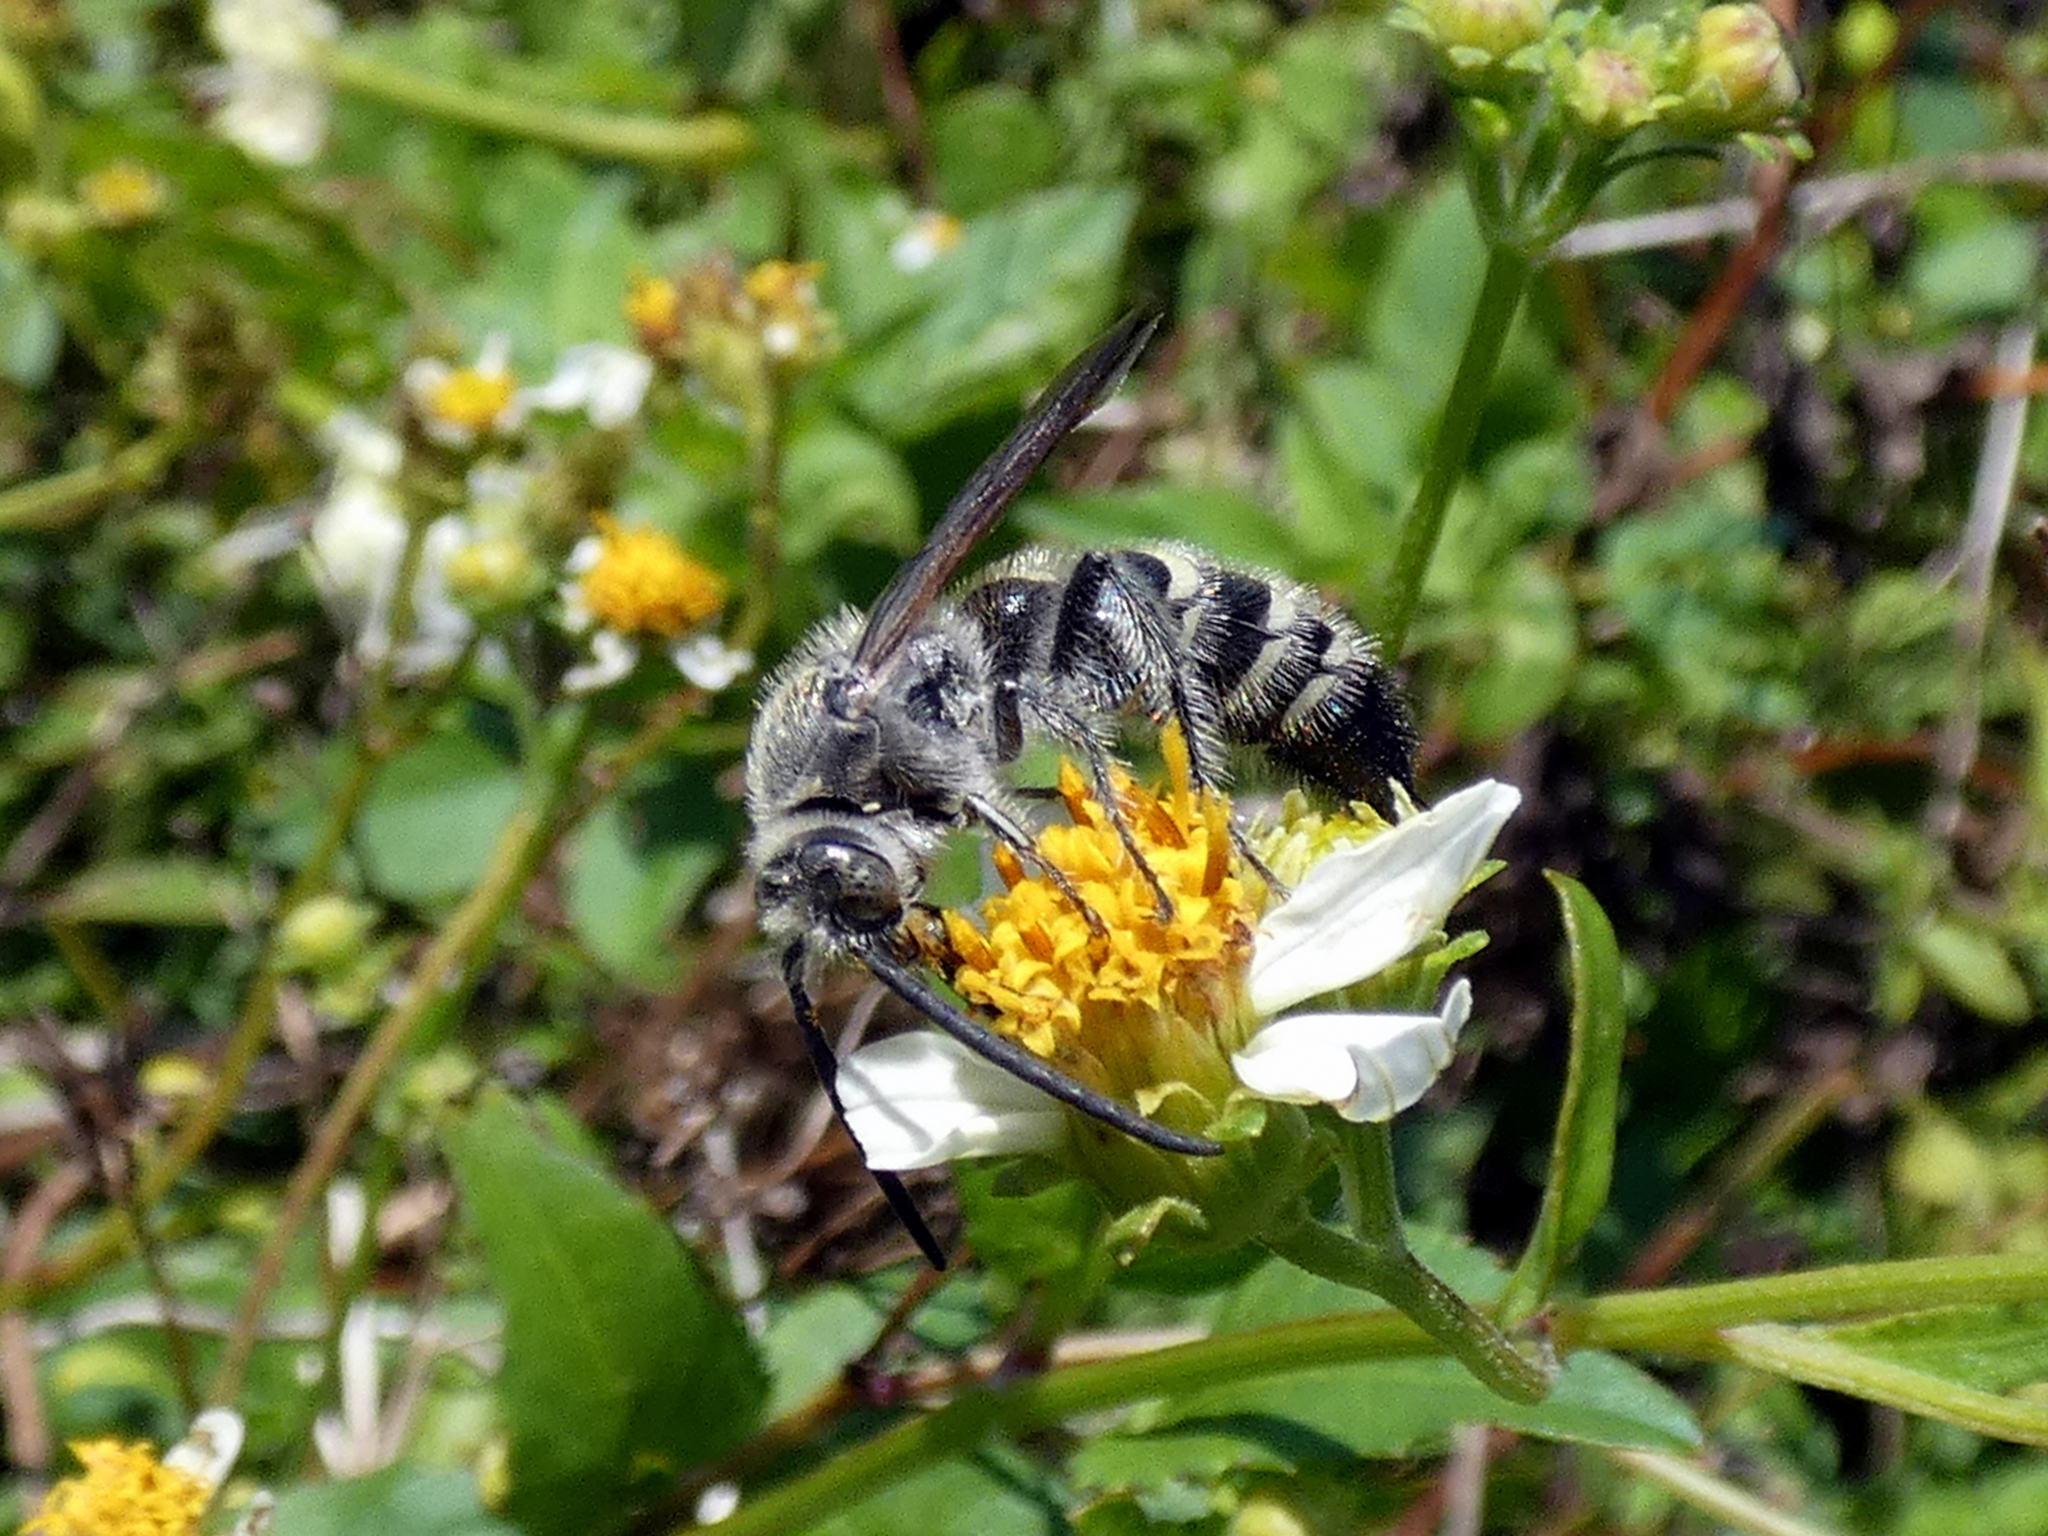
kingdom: Animalia
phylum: Arthropoda
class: Insecta
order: Hymenoptera
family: Scoliidae
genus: Dielis
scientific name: Dielis
